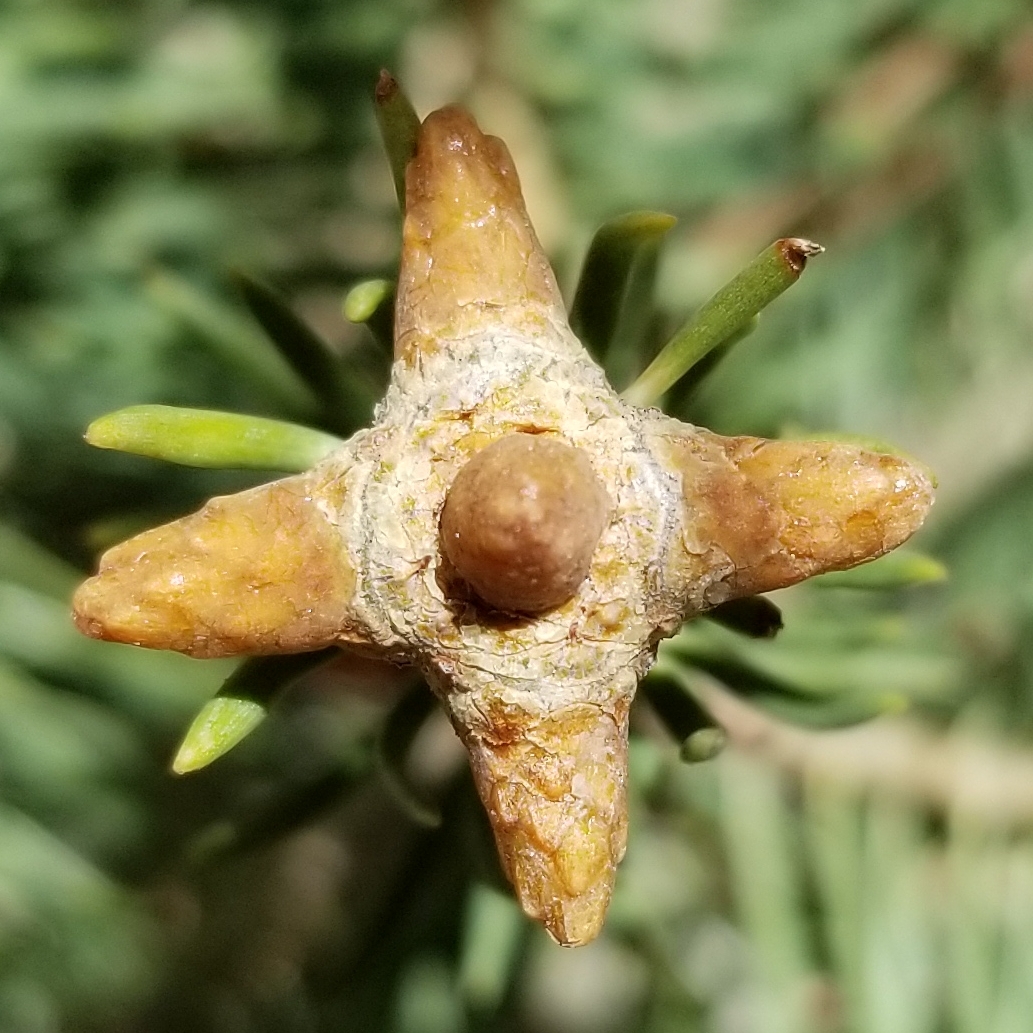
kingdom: Plantae
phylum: Tracheophyta
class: Pinopsida
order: Pinales
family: Pinaceae
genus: Abies
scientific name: Abies concolor
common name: Colorado fir
